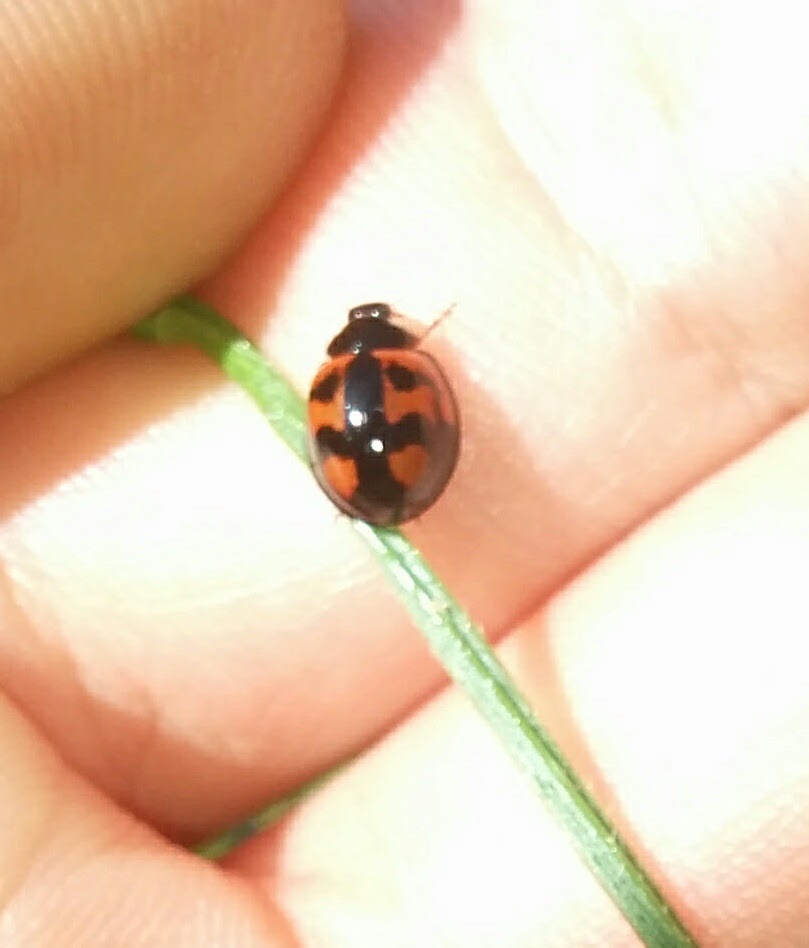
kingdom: Animalia
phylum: Arthropoda
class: Insecta
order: Coleoptera
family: Coccinellidae
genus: Cheilomenes
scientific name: Cheilomenes sexmaculata
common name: Ladybird beetle
